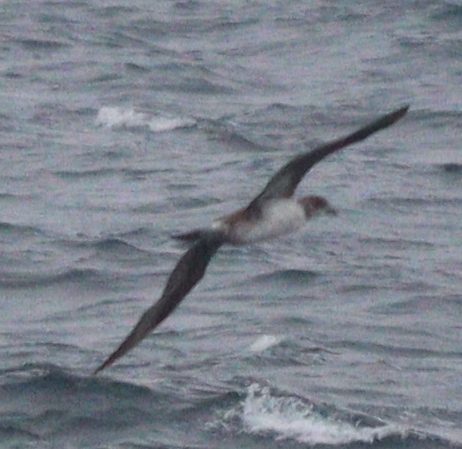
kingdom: Animalia
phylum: Chordata
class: Aves
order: Suliformes
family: Sulidae
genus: Morus
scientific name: Morus bassanus
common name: Northern gannet
